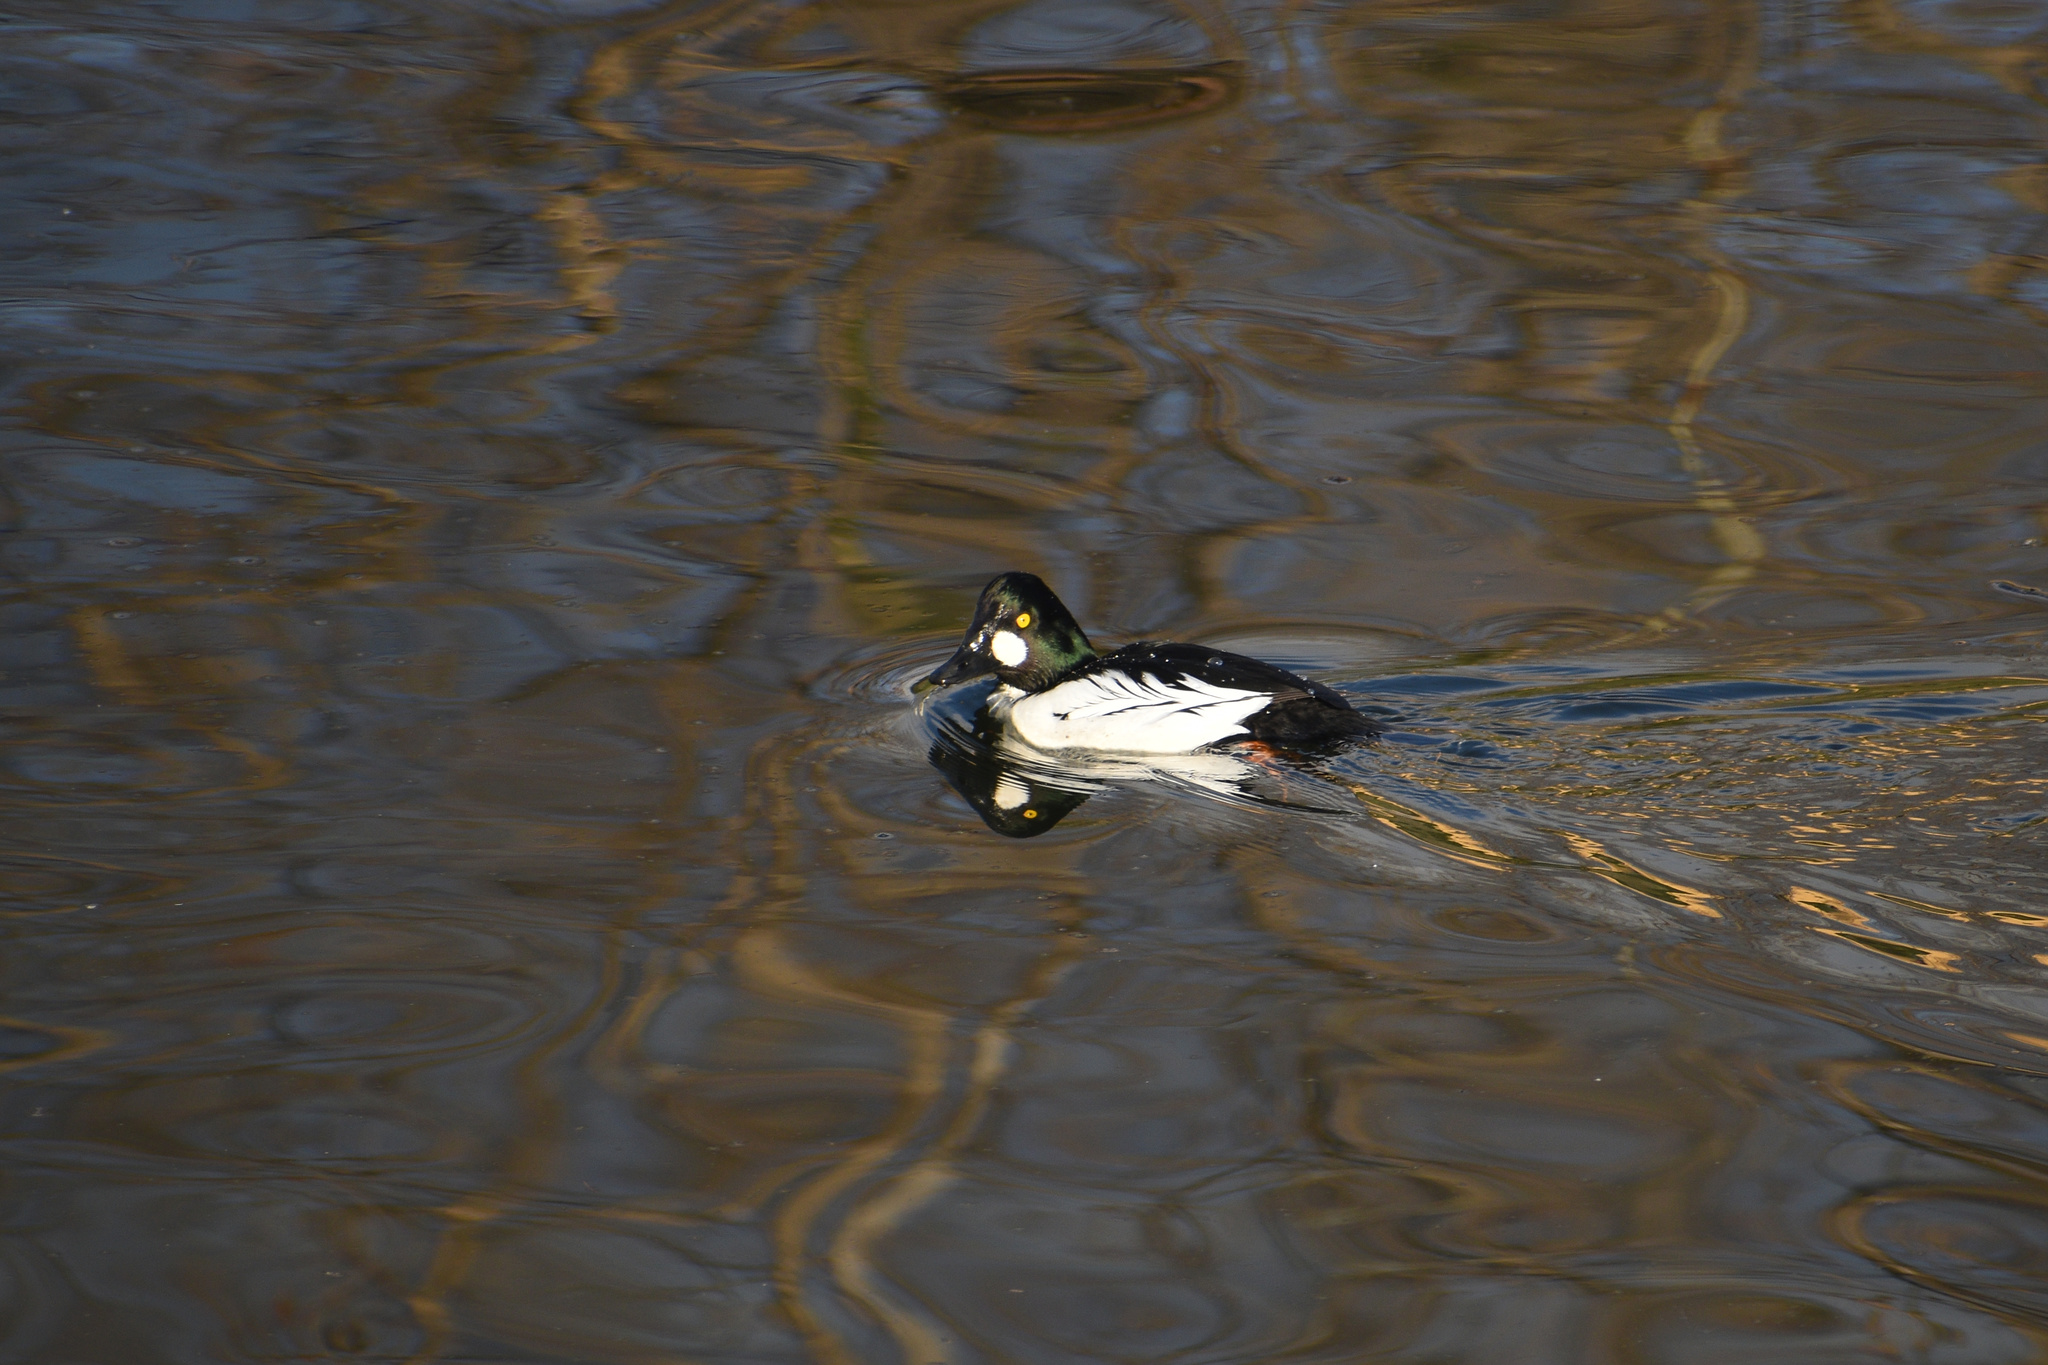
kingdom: Animalia
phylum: Chordata
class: Aves
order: Anseriformes
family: Anatidae
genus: Bucephala
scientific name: Bucephala clangula
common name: Common goldeneye
